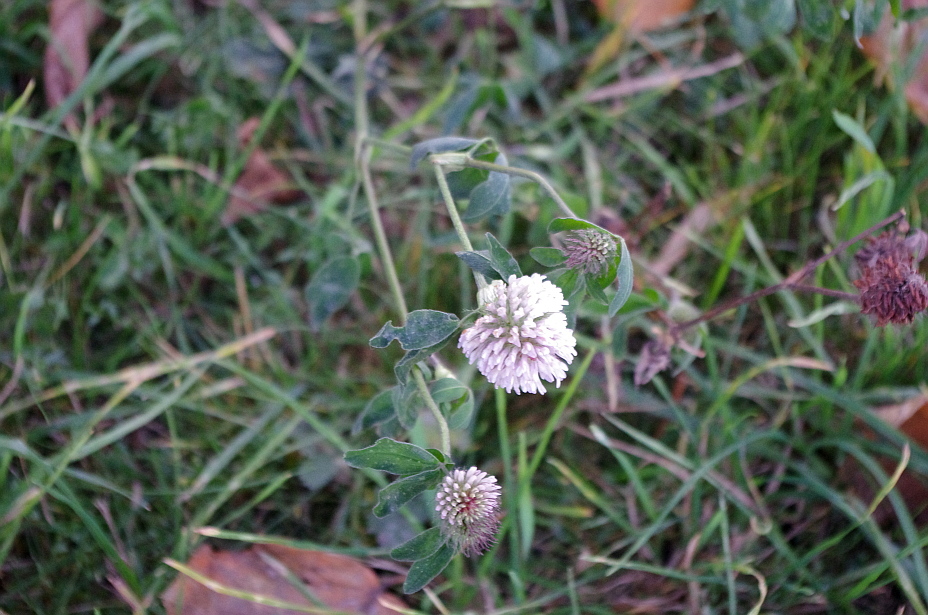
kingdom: Plantae
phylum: Tracheophyta
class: Magnoliopsida
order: Fabales
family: Fabaceae
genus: Trifolium
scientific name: Trifolium pratense
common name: Red clover
